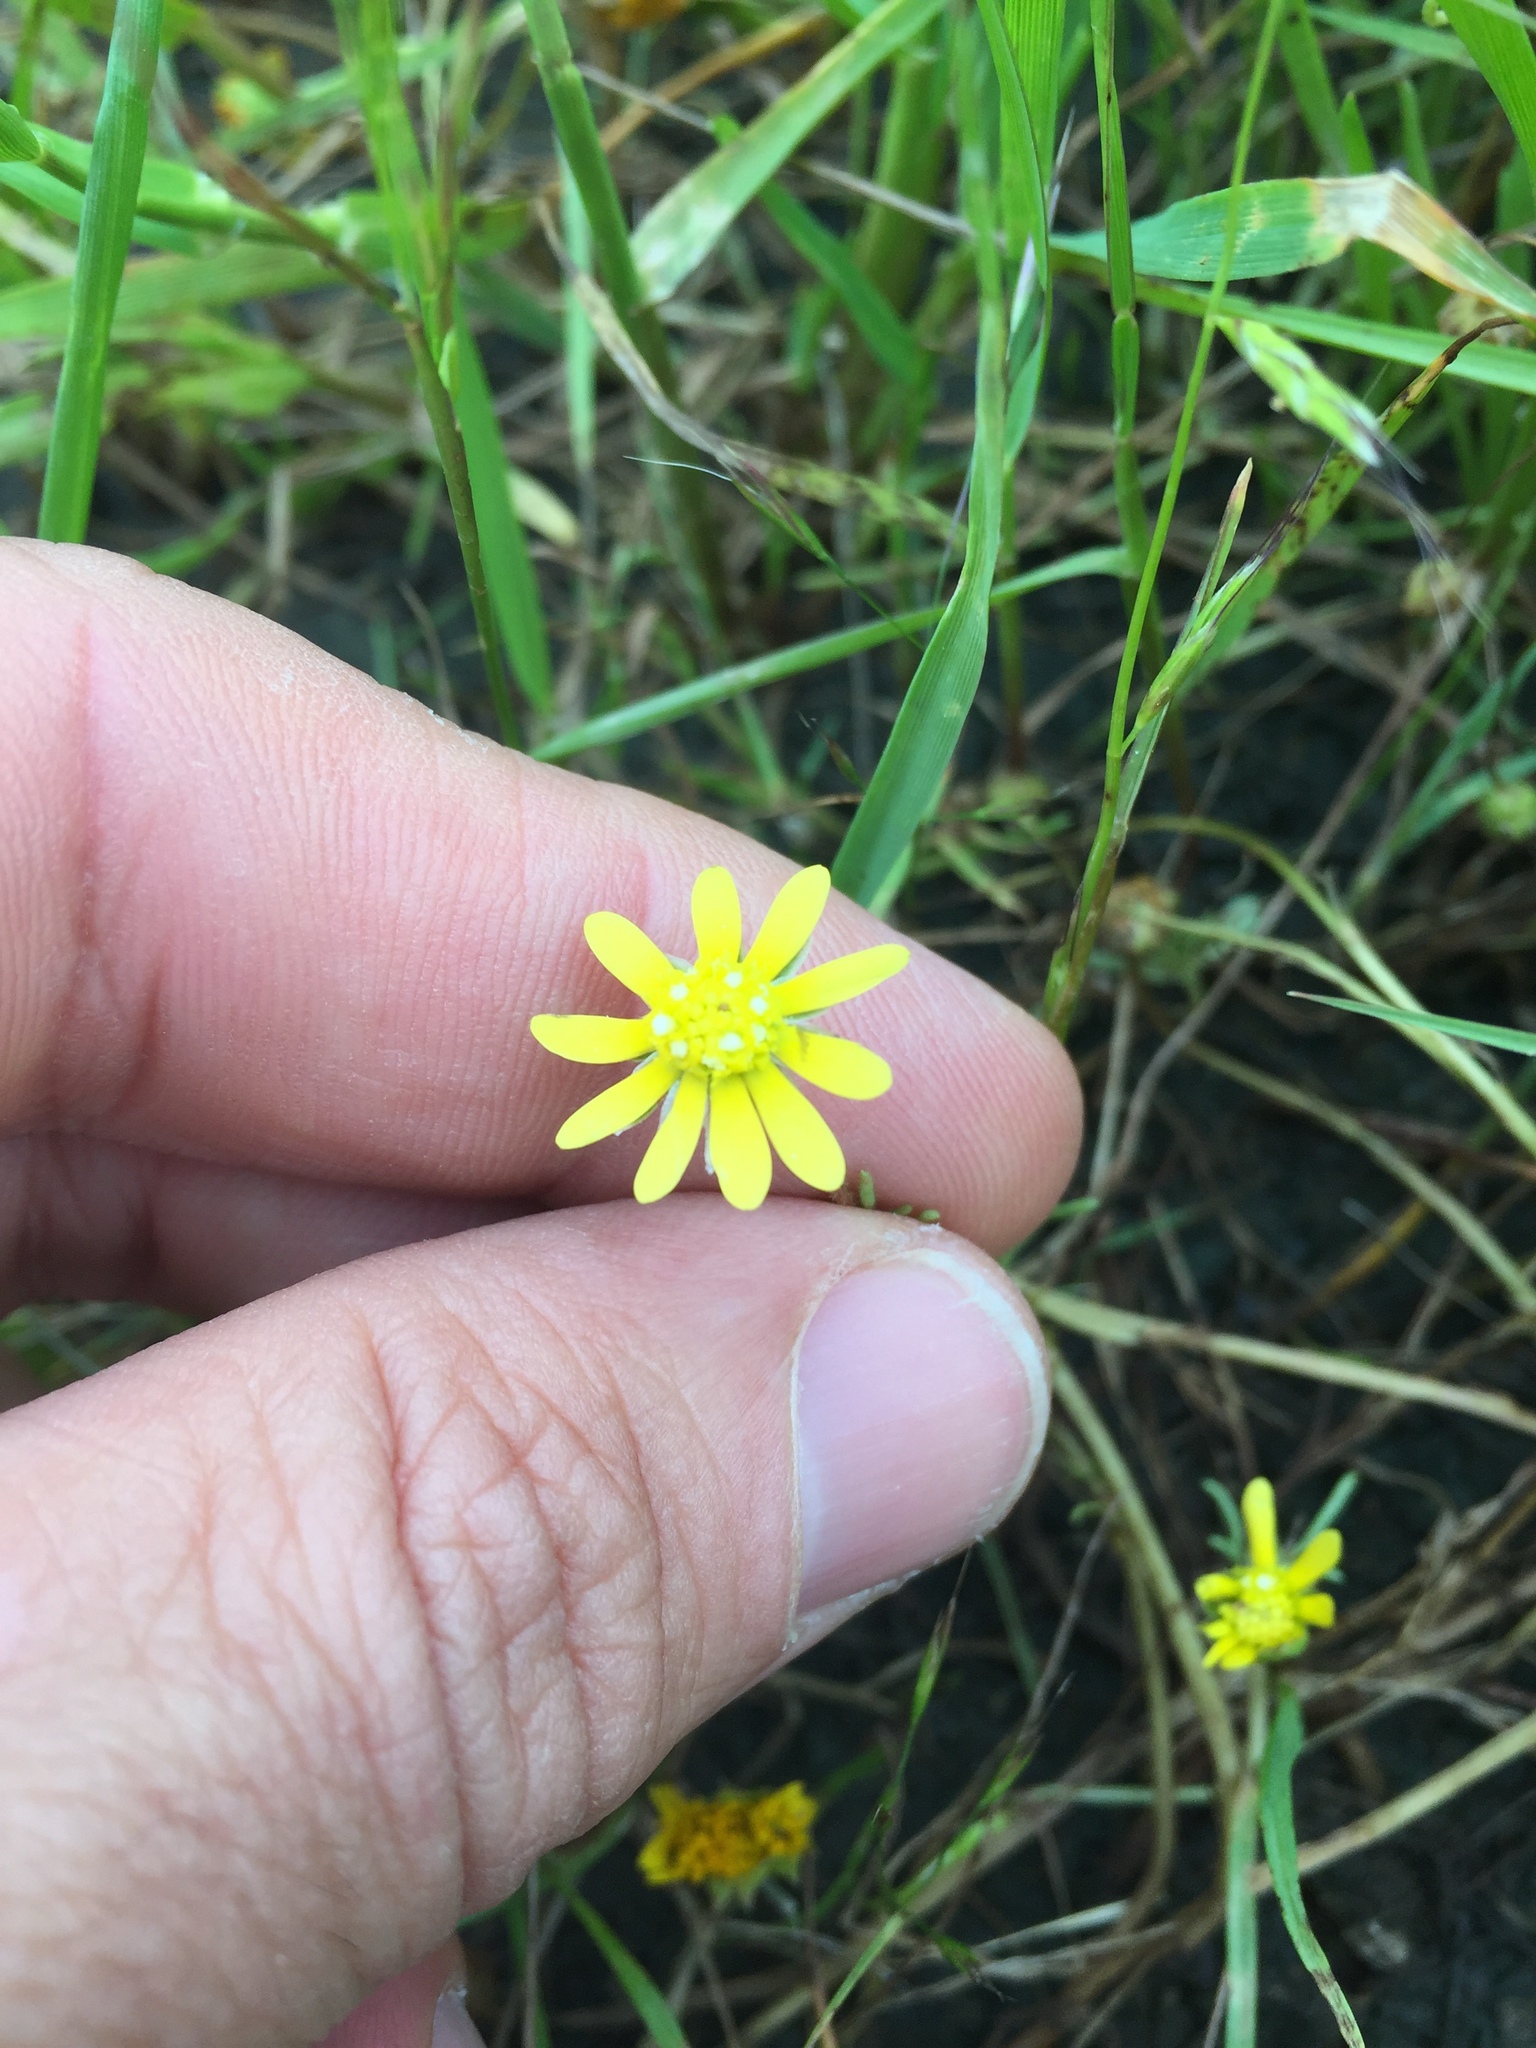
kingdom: Plantae
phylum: Tracheophyta
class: Magnoliopsida
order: Asterales
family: Asteraceae
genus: Blennosperma
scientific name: Blennosperma nanum
